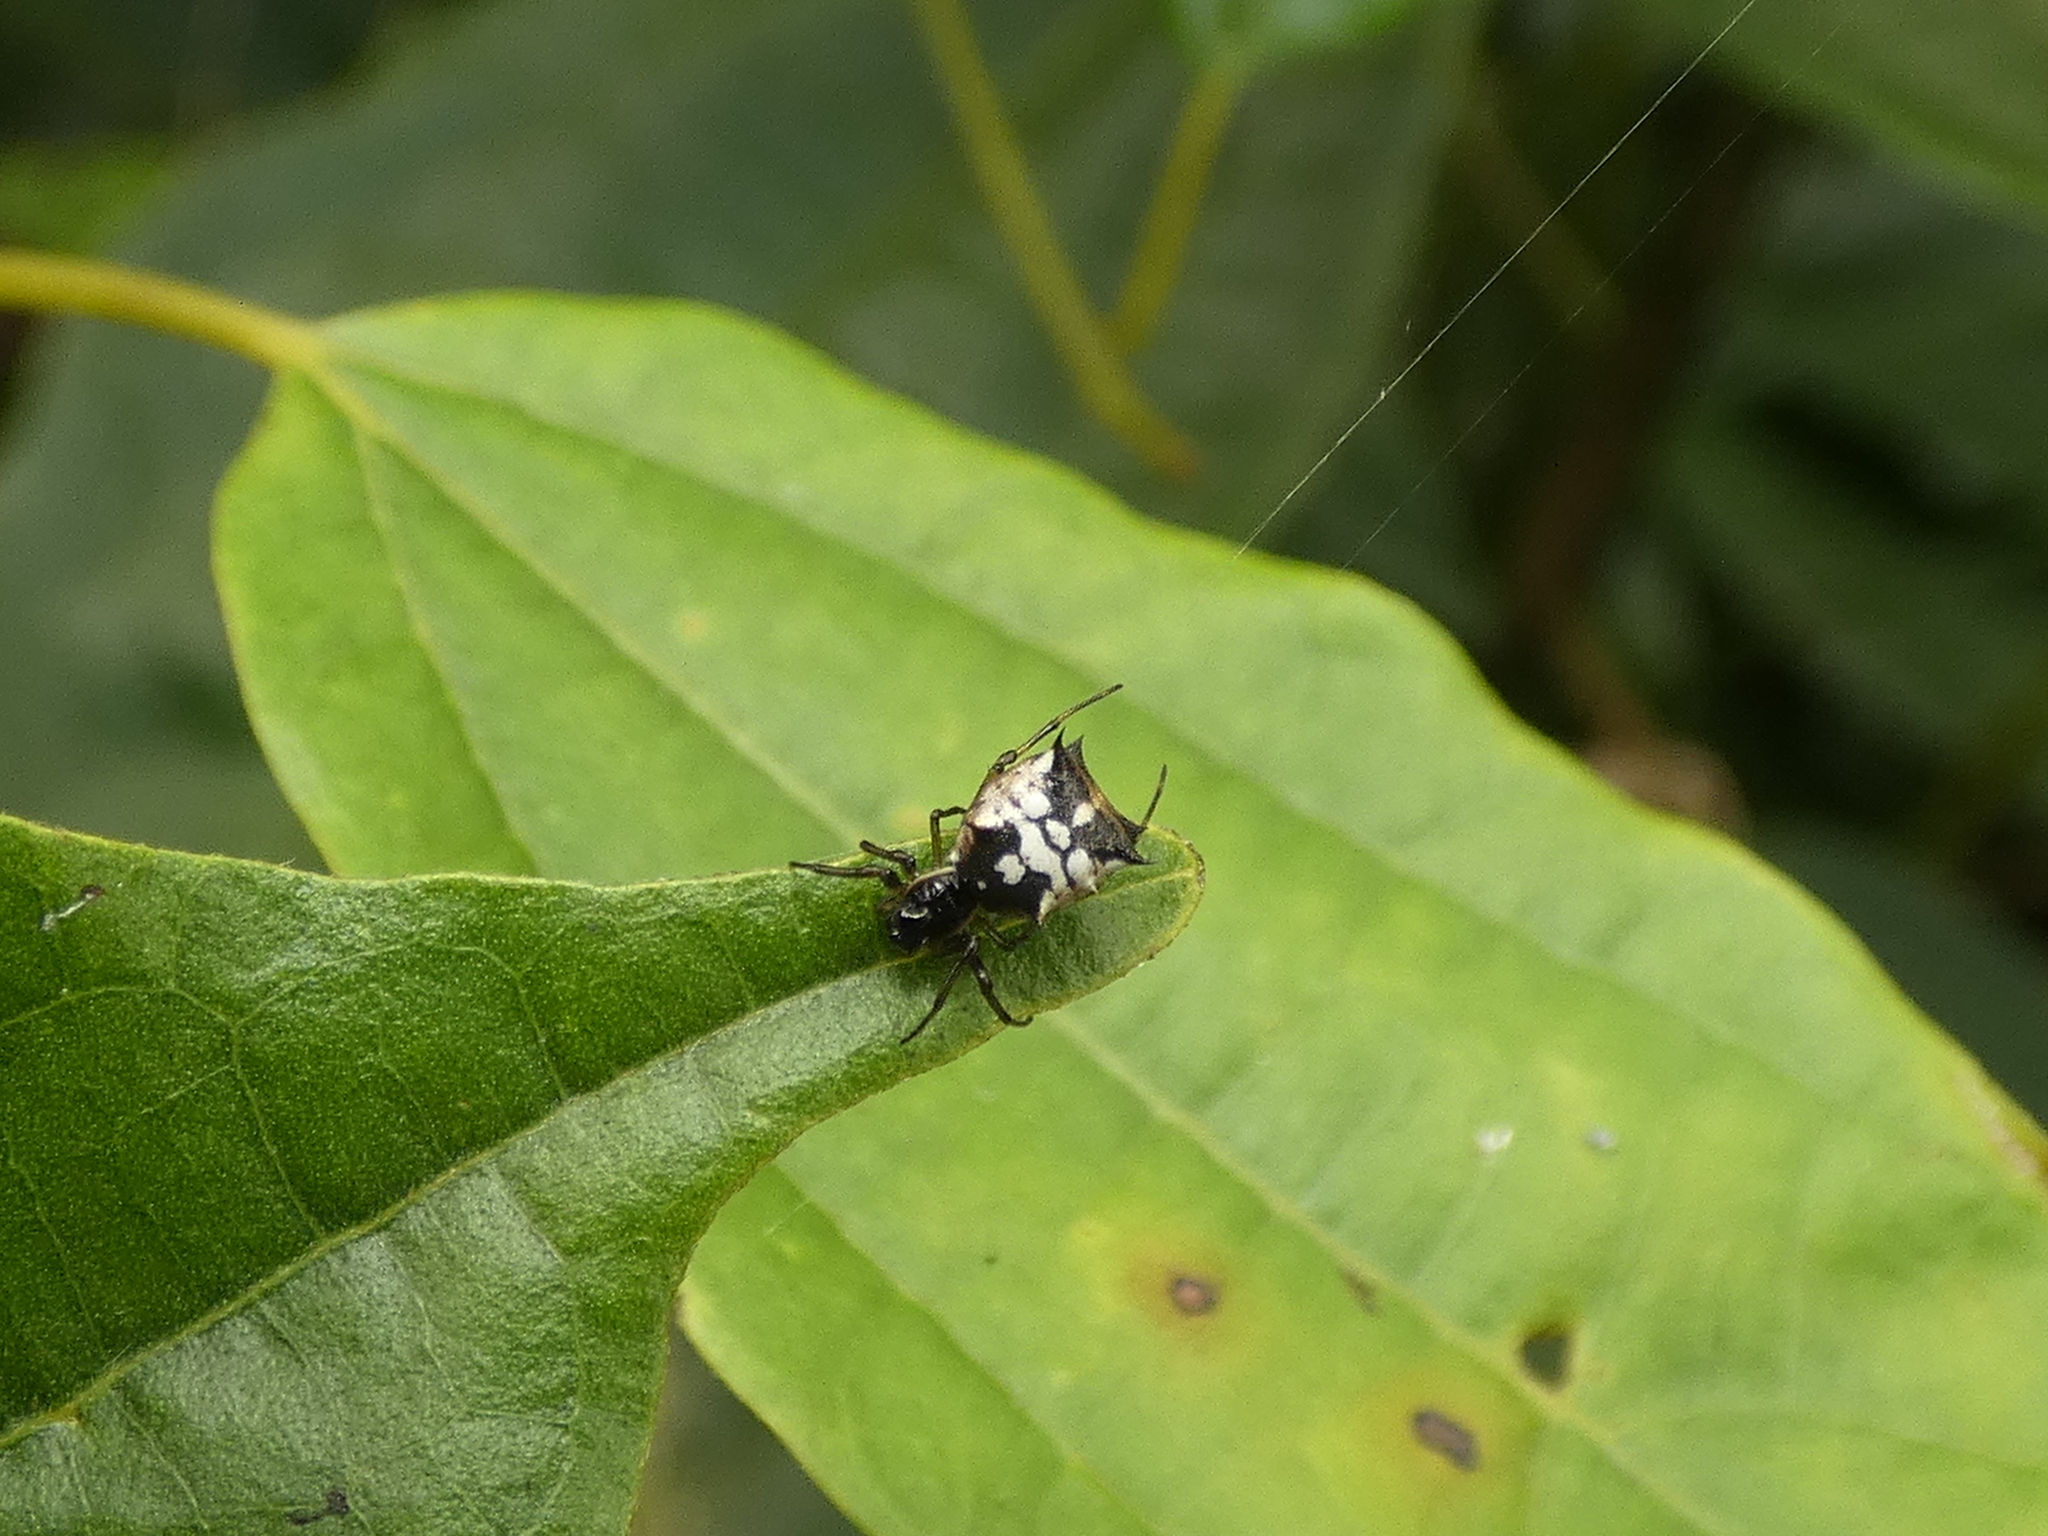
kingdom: Animalia
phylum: Arthropoda
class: Arachnida
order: Araneae
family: Araneidae
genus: Micrathena
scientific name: Micrathena picta
